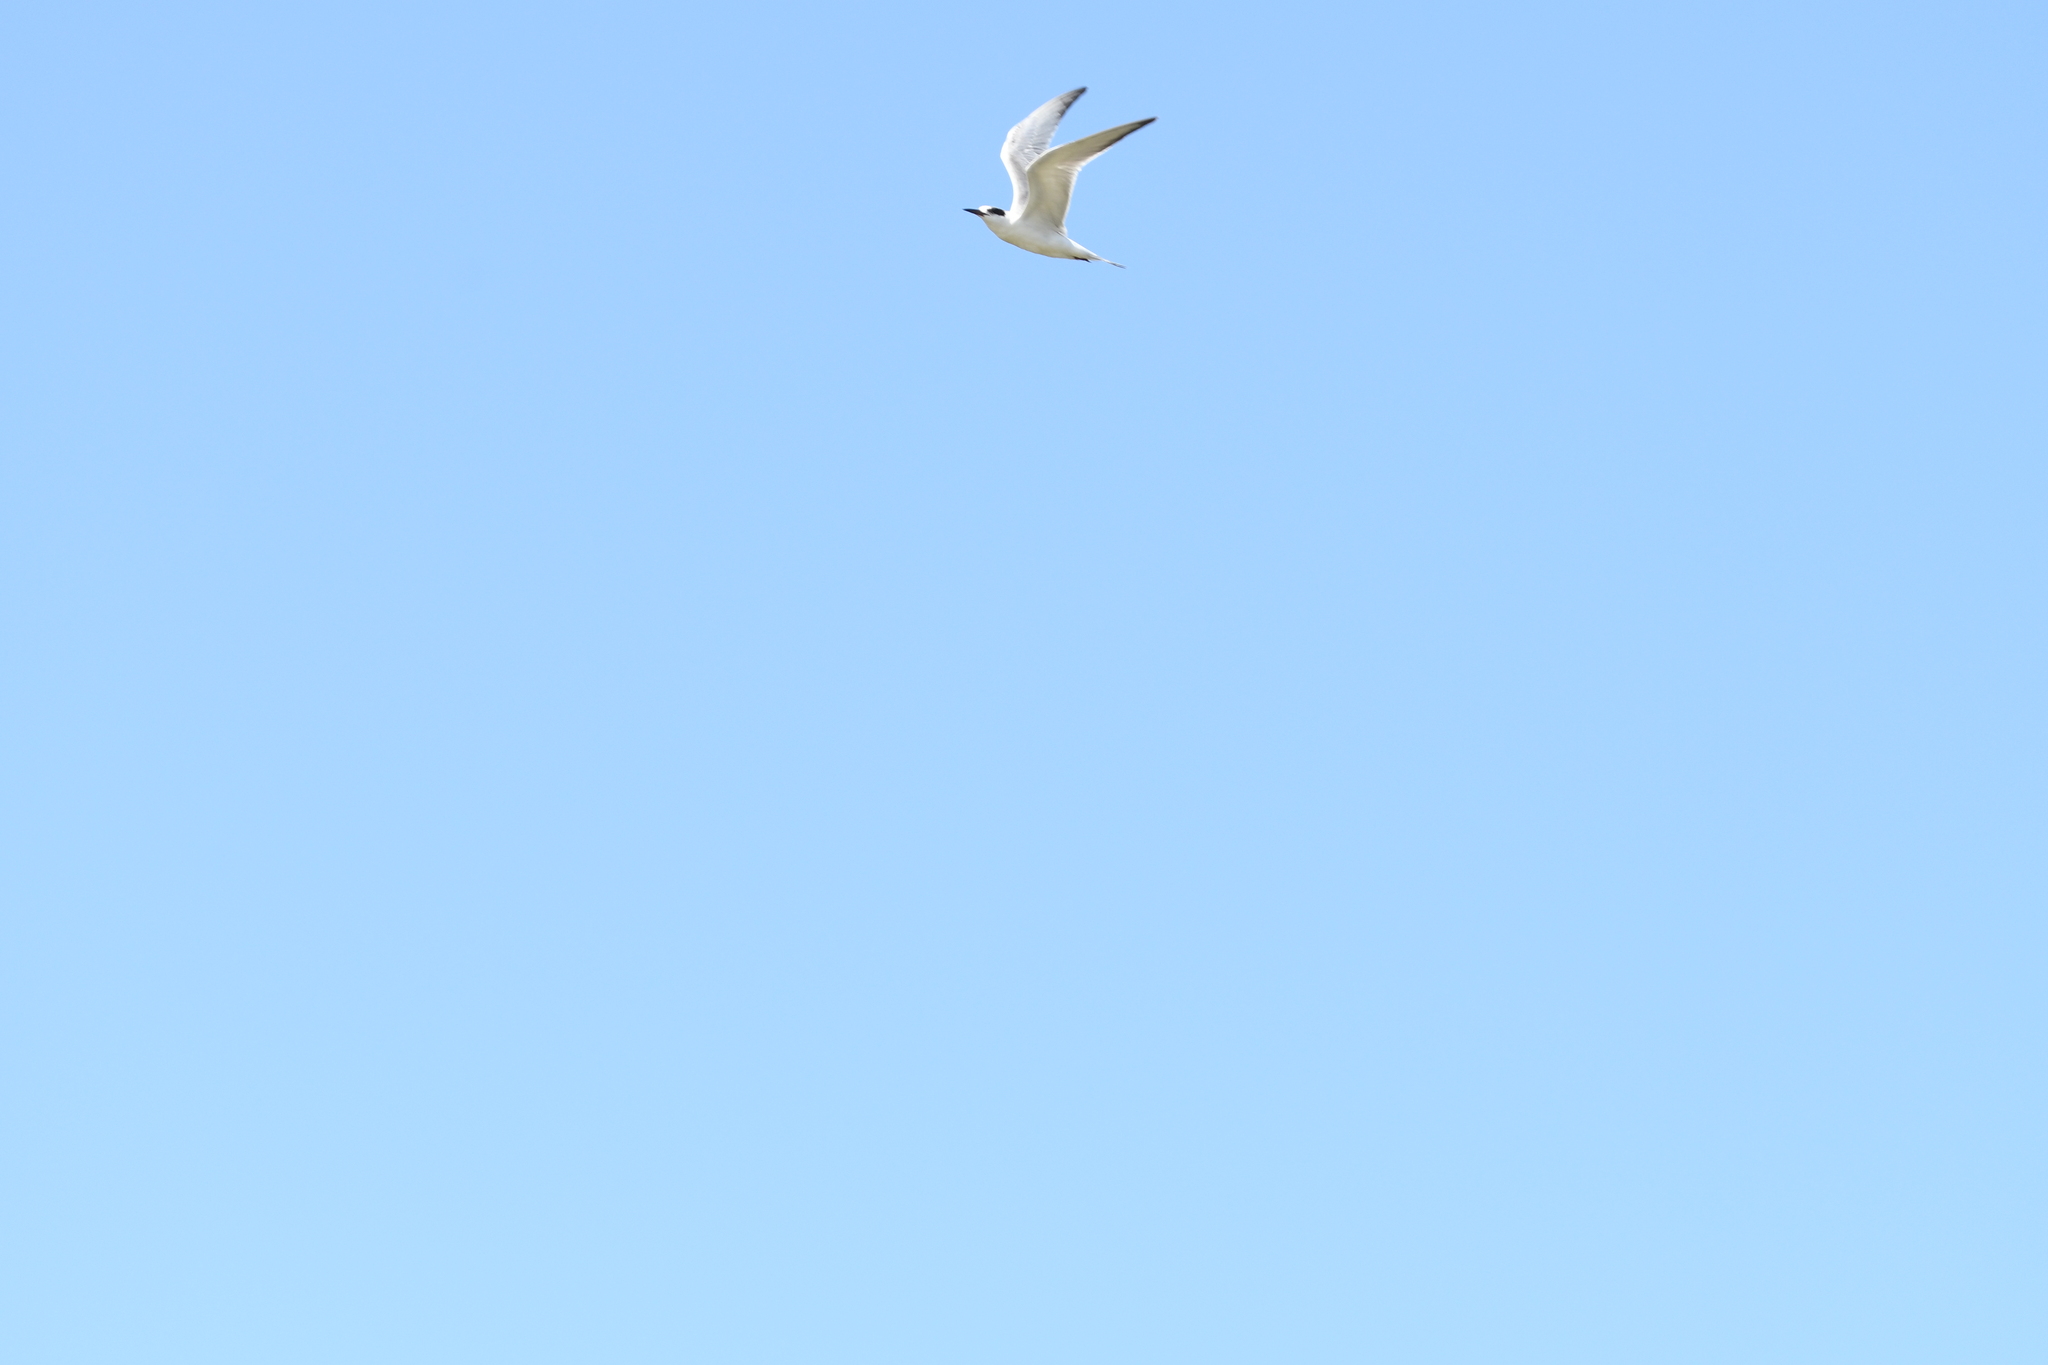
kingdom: Animalia
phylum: Chordata
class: Aves
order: Charadriiformes
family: Laridae
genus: Sterna
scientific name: Sterna forsteri
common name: Forster's tern
